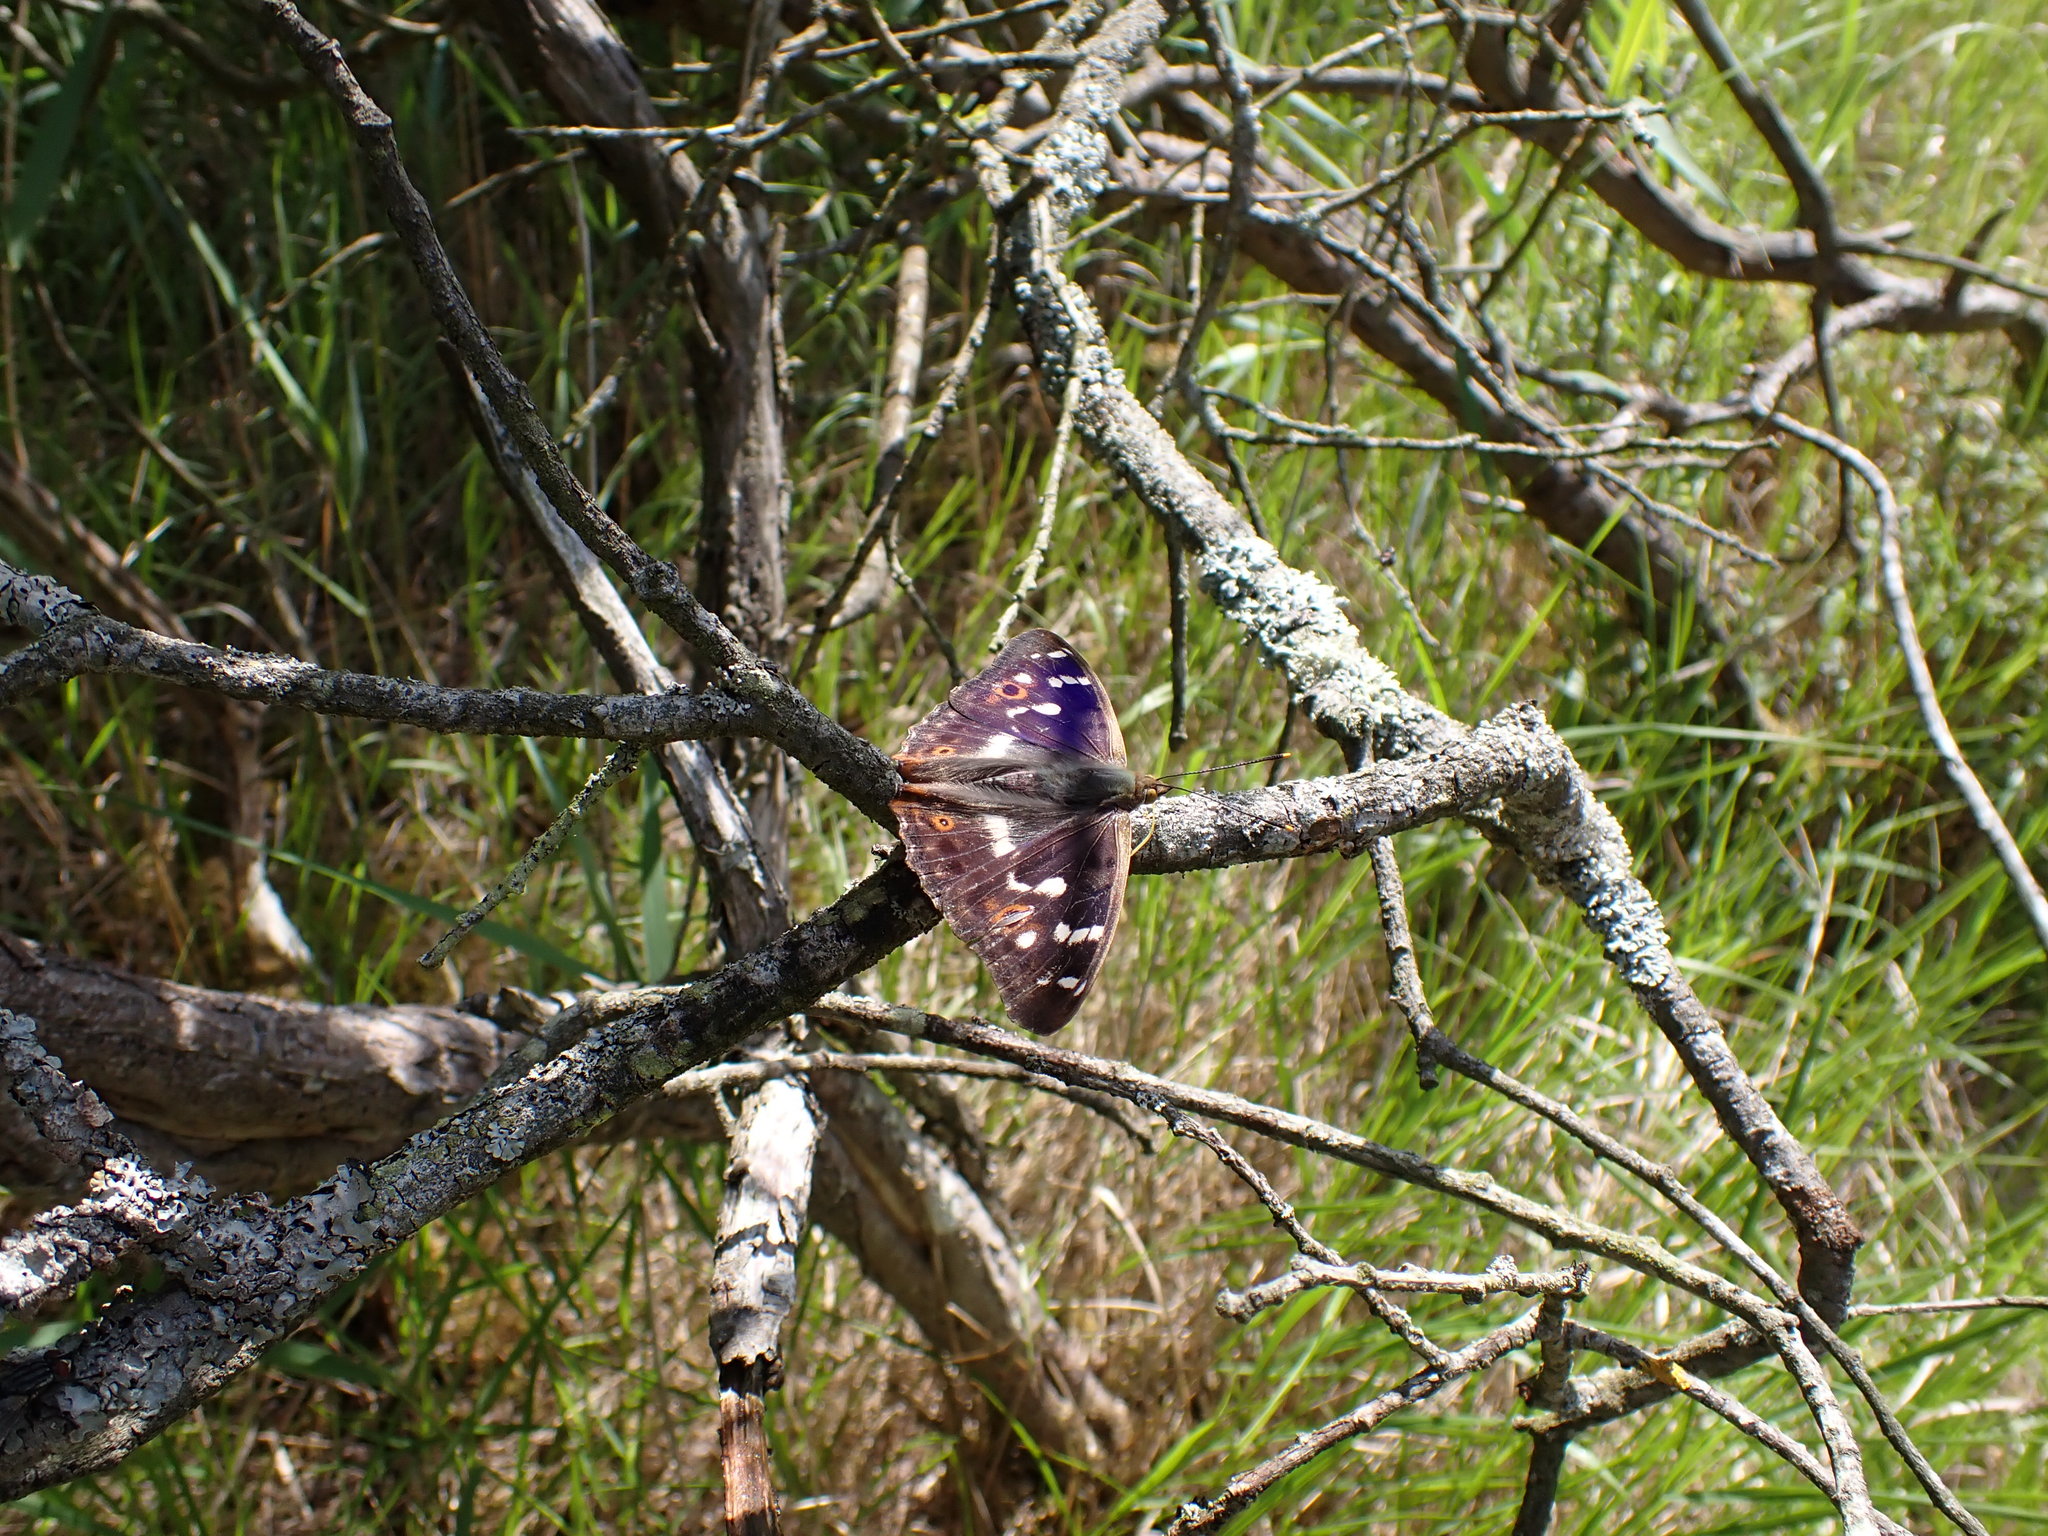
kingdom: Animalia
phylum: Arthropoda
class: Insecta
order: Lepidoptera
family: Nymphalidae
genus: Apatura
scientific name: Apatura ilia
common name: Lesser purple emperor
